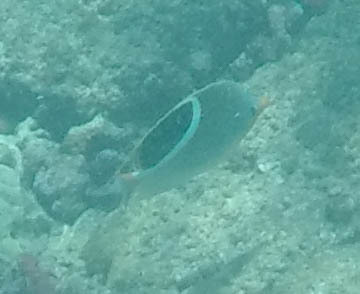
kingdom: Animalia
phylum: Chordata
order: Perciformes
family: Chaetodontidae
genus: Chaetodon
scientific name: Chaetodon ephippium
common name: Saddled butterflyfish
